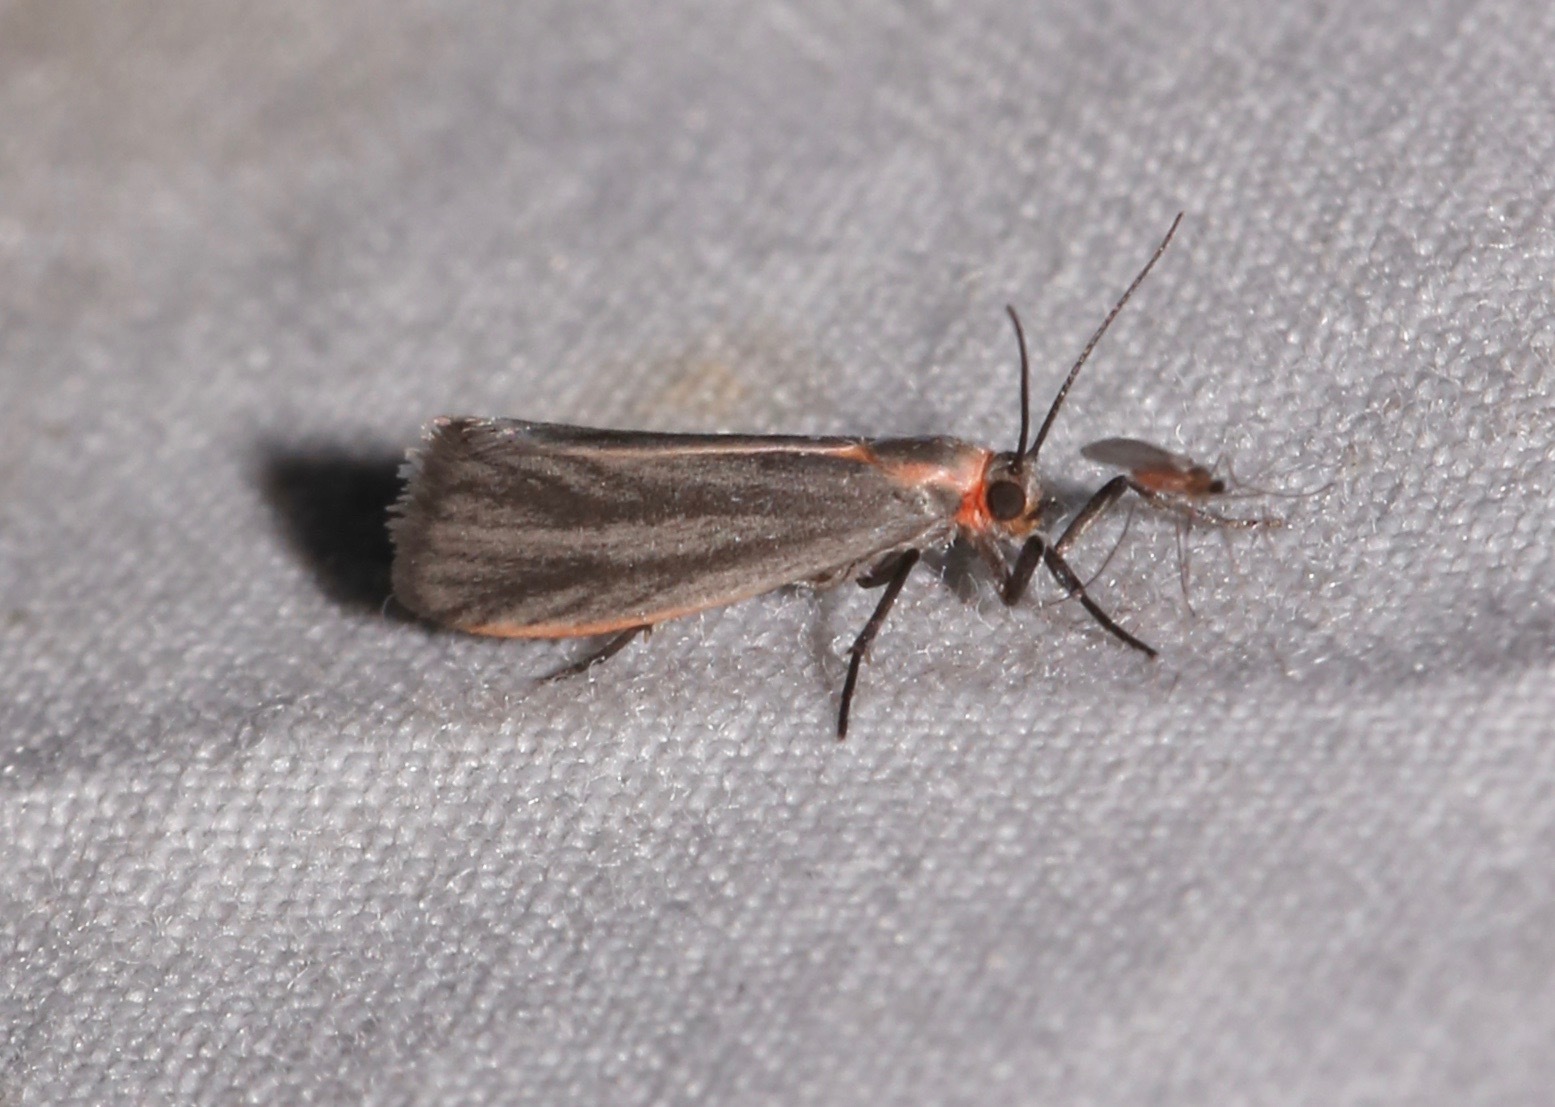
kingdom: Animalia
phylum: Arthropoda
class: Insecta
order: Lepidoptera
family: Erebidae
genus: Cisthene
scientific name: Cisthene striata
